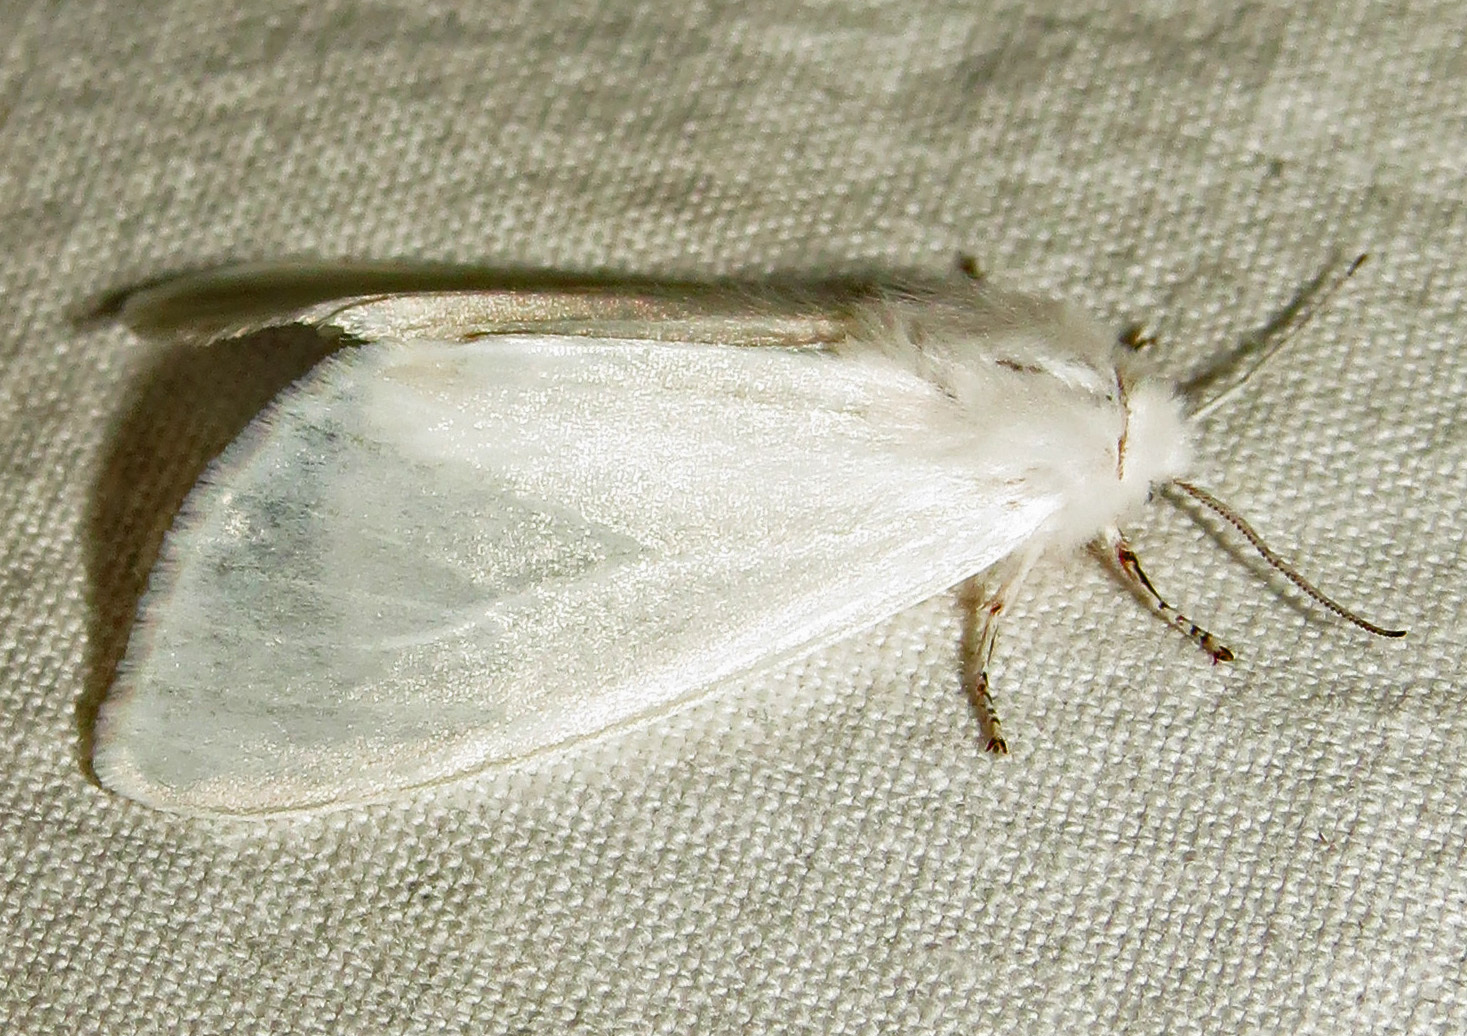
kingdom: Animalia
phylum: Arthropoda
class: Insecta
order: Lepidoptera
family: Erebidae
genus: Hyphantria
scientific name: Hyphantria cunea
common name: American white moth
